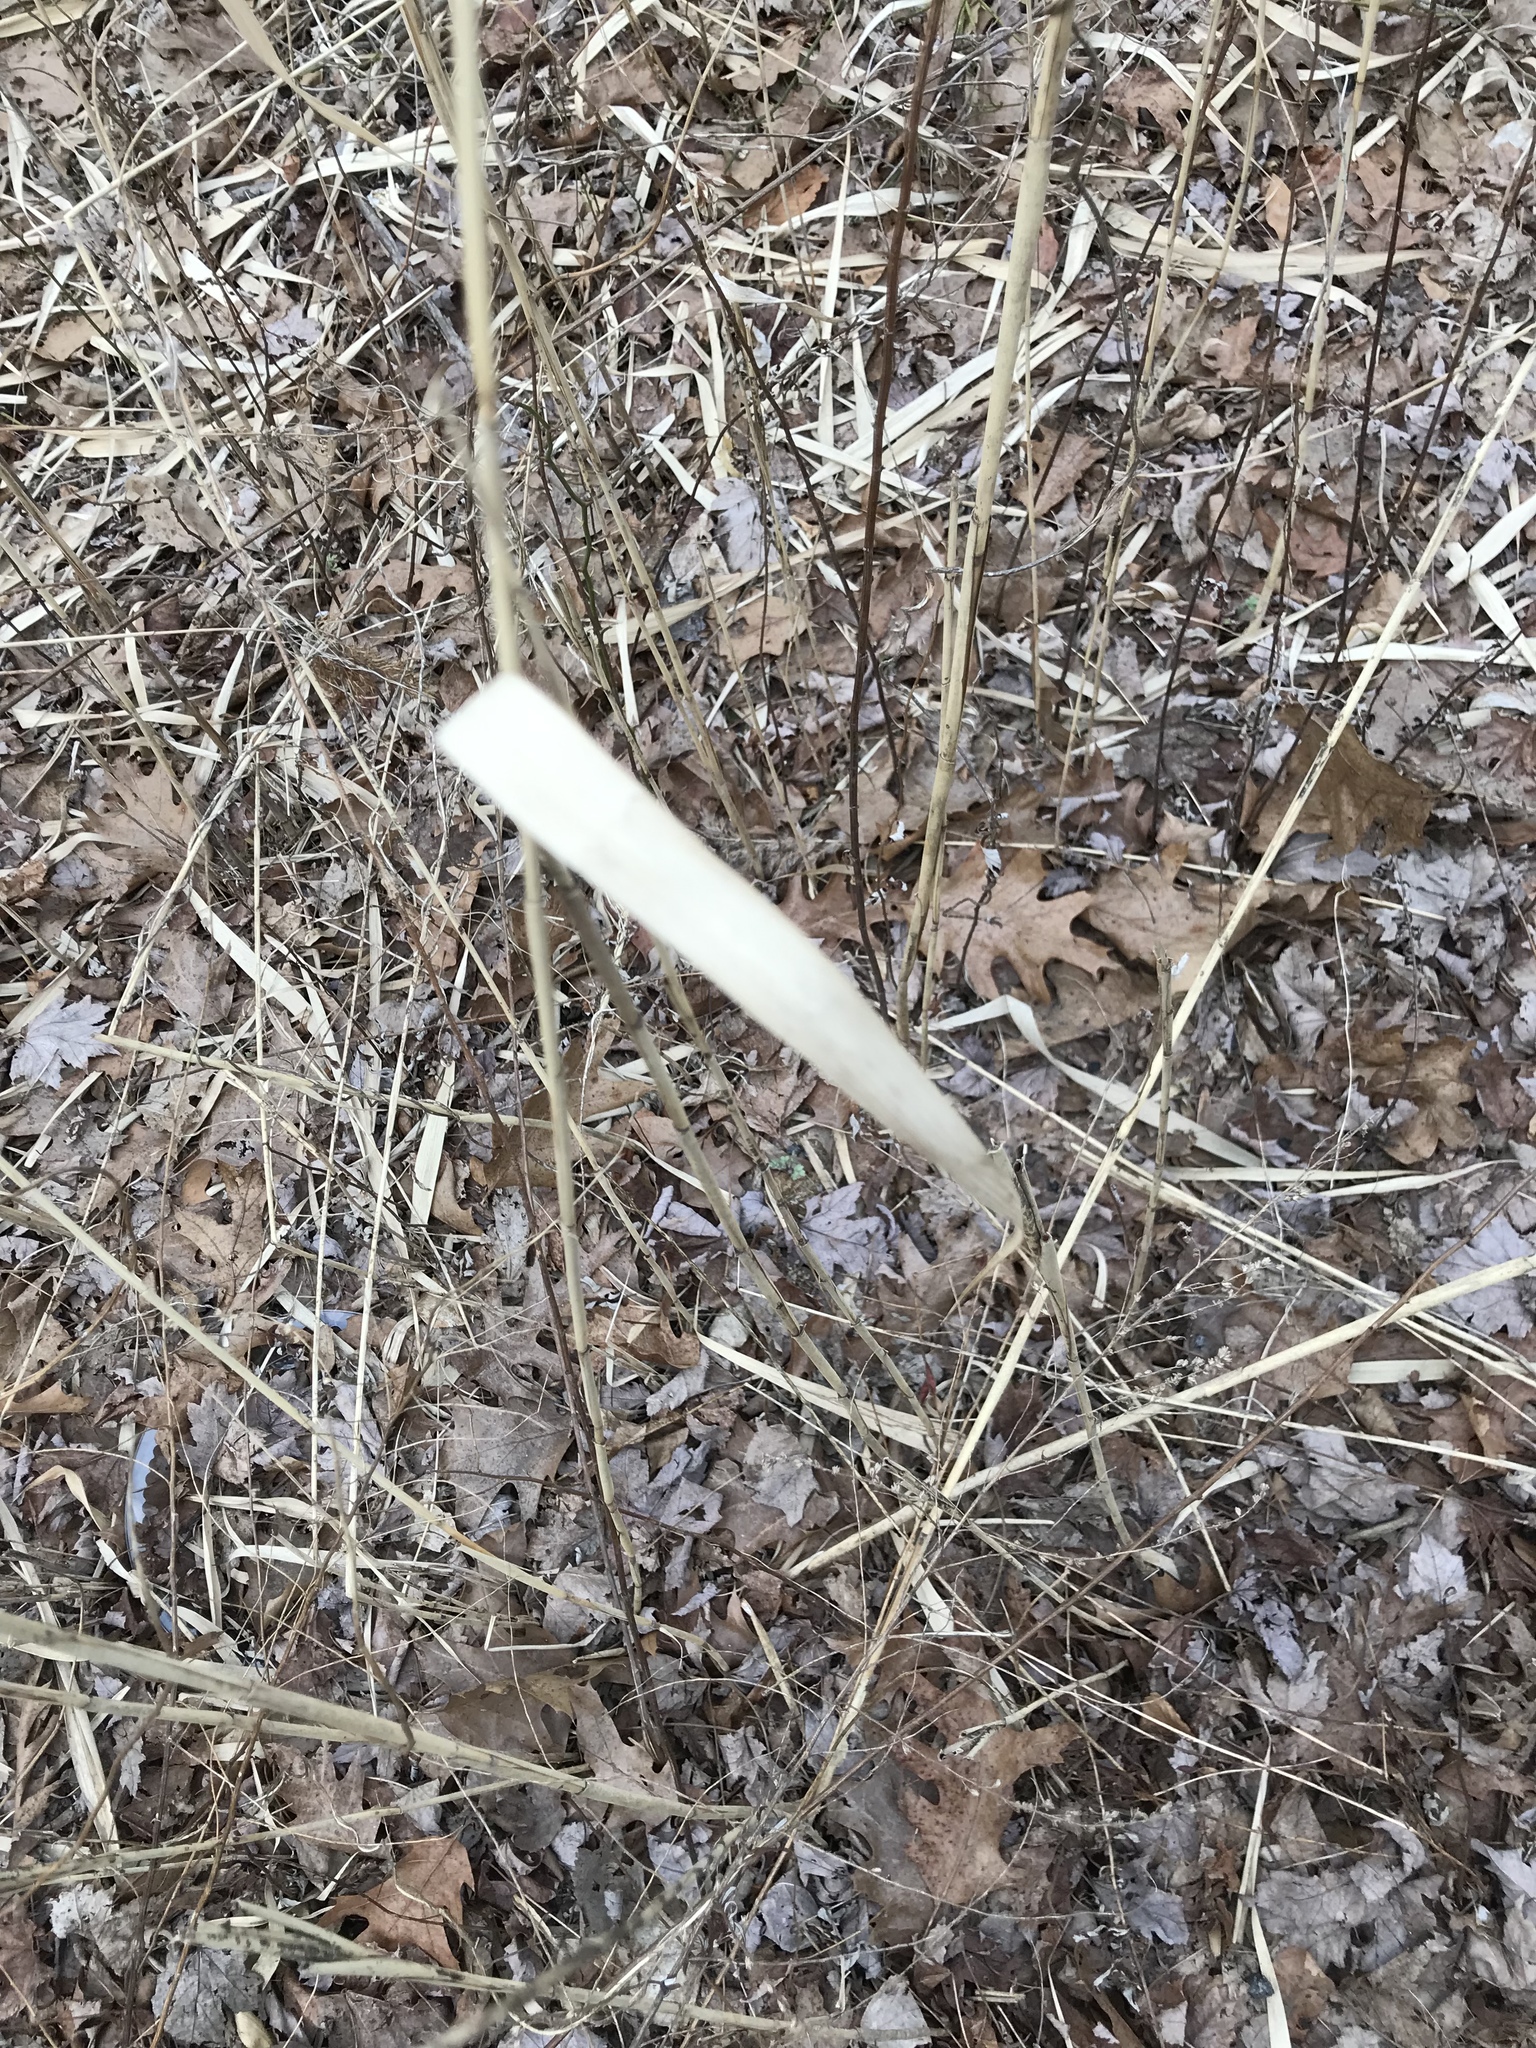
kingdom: Plantae
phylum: Tracheophyta
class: Liliopsida
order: Poales
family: Poaceae
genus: Phragmites
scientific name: Phragmites australis
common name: Common reed
